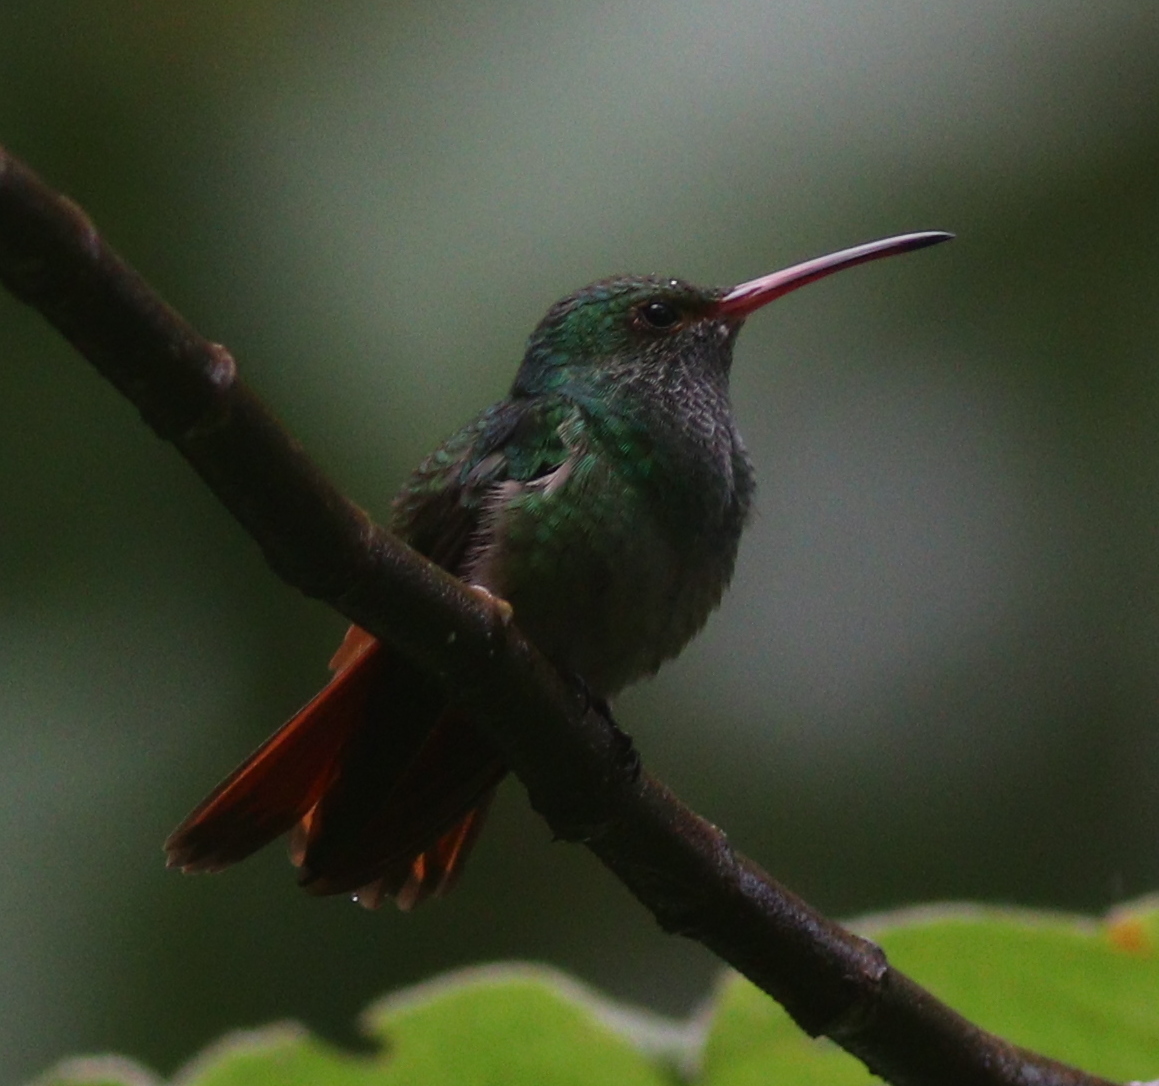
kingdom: Animalia
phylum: Chordata
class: Aves
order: Apodiformes
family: Trochilidae
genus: Amazilia
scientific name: Amazilia tzacatl
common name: Rufous-tailed hummingbird
